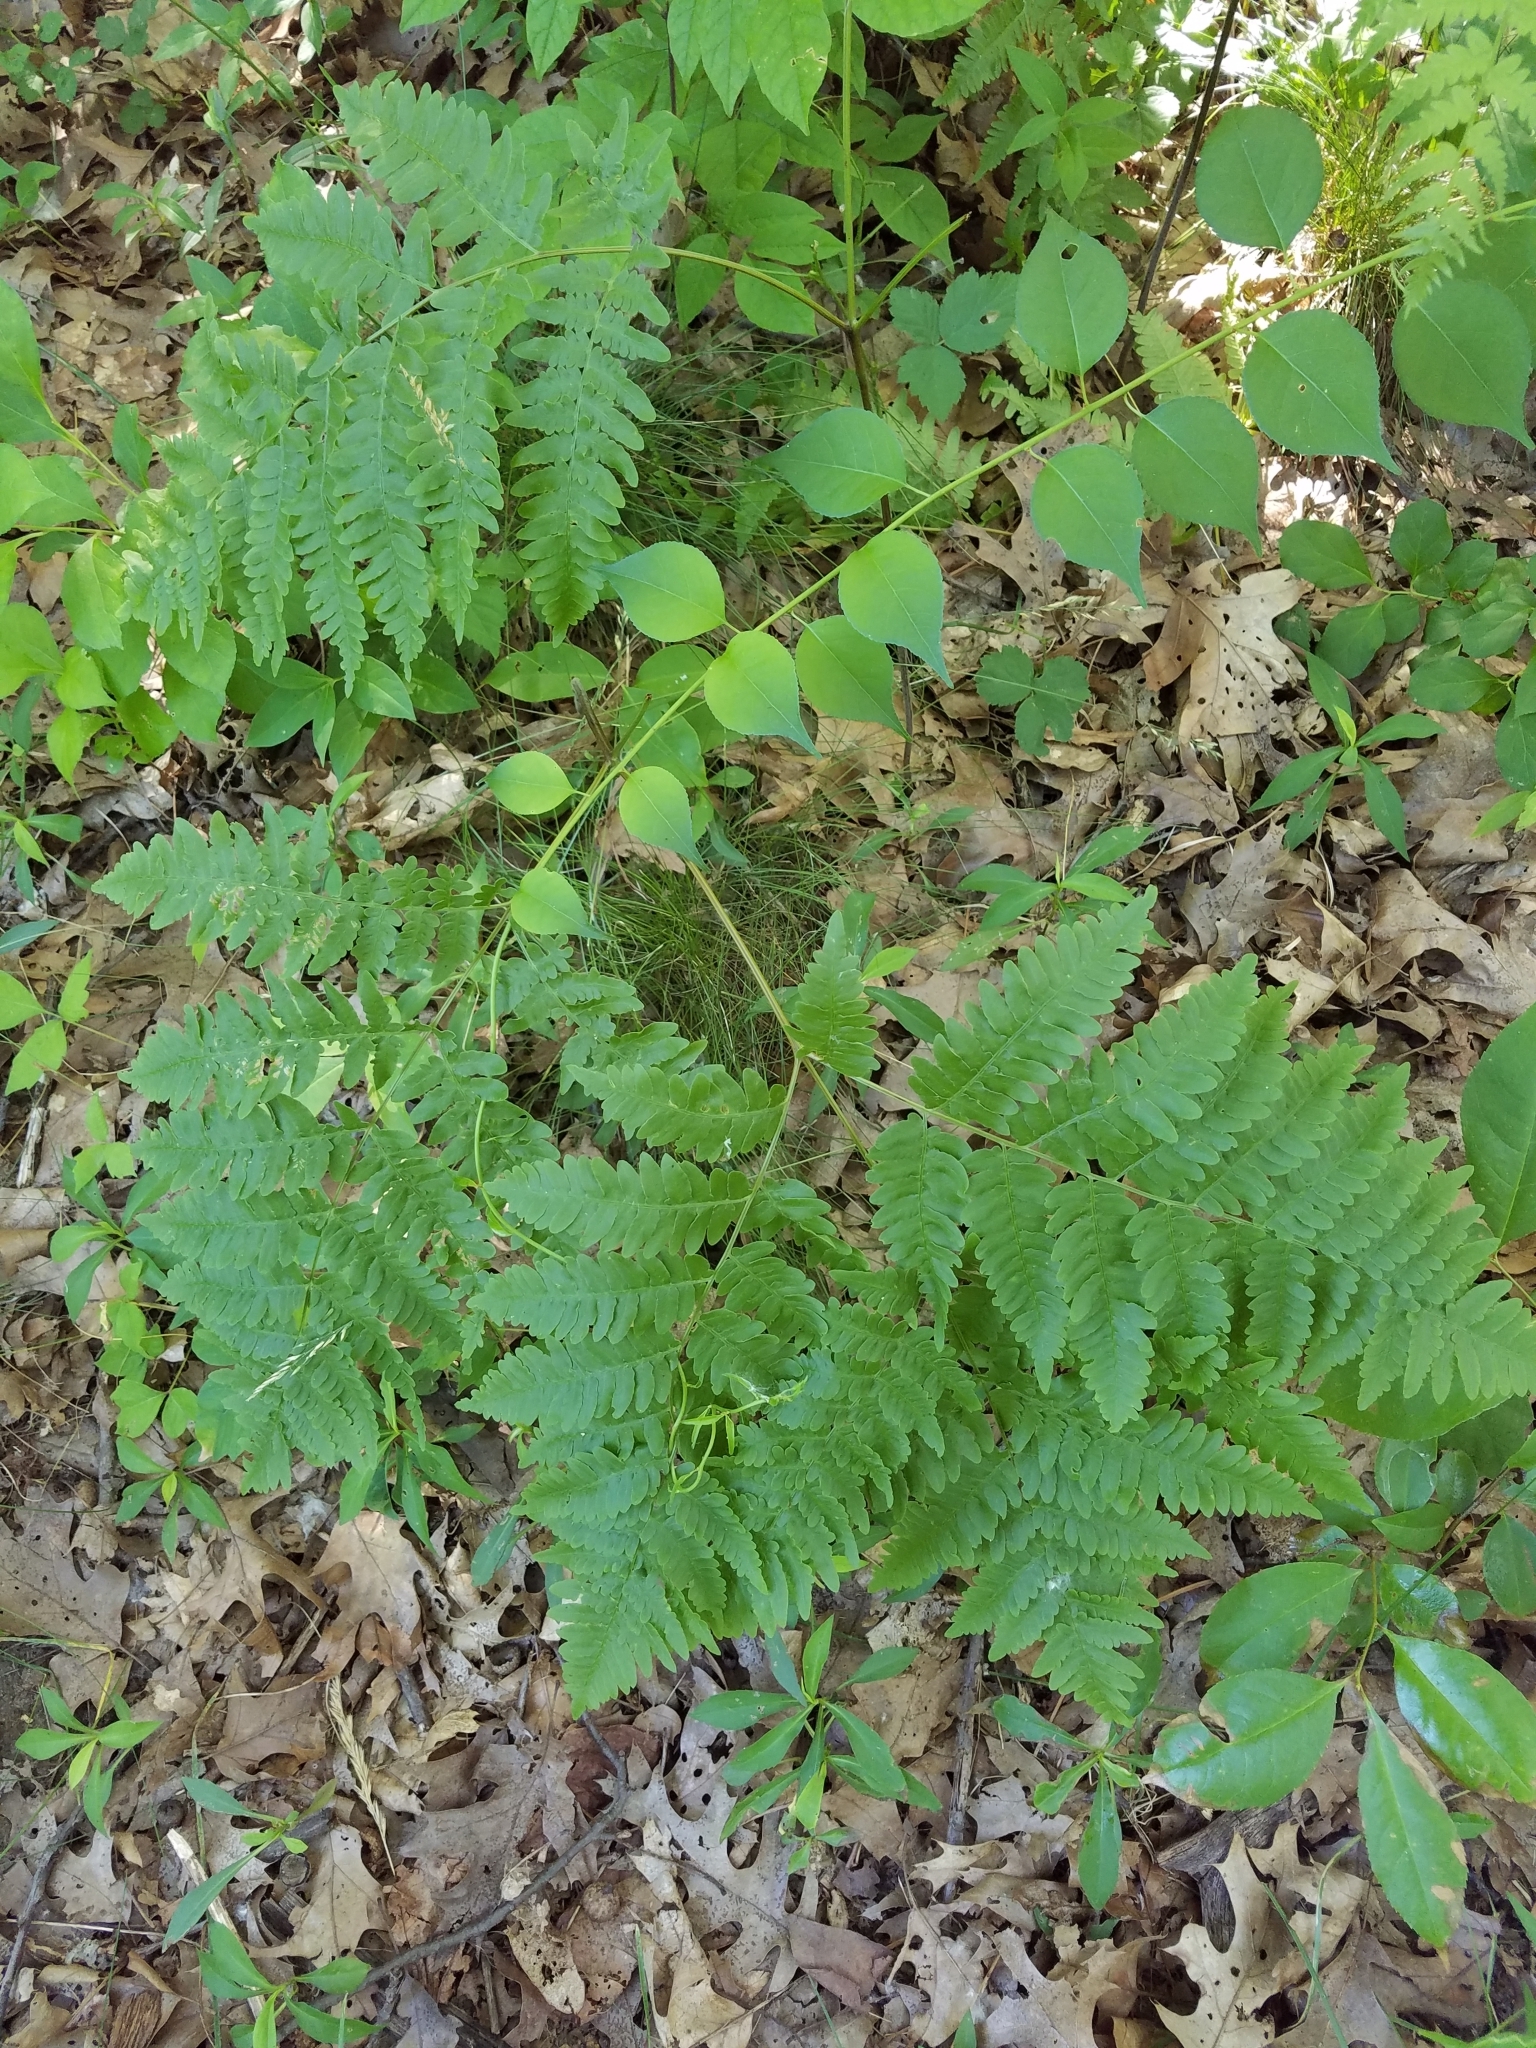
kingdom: Plantae
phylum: Tracheophyta
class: Polypodiopsida
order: Polypodiales
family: Dennstaedtiaceae
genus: Pteridium
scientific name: Pteridium aquilinum
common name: Bracken
